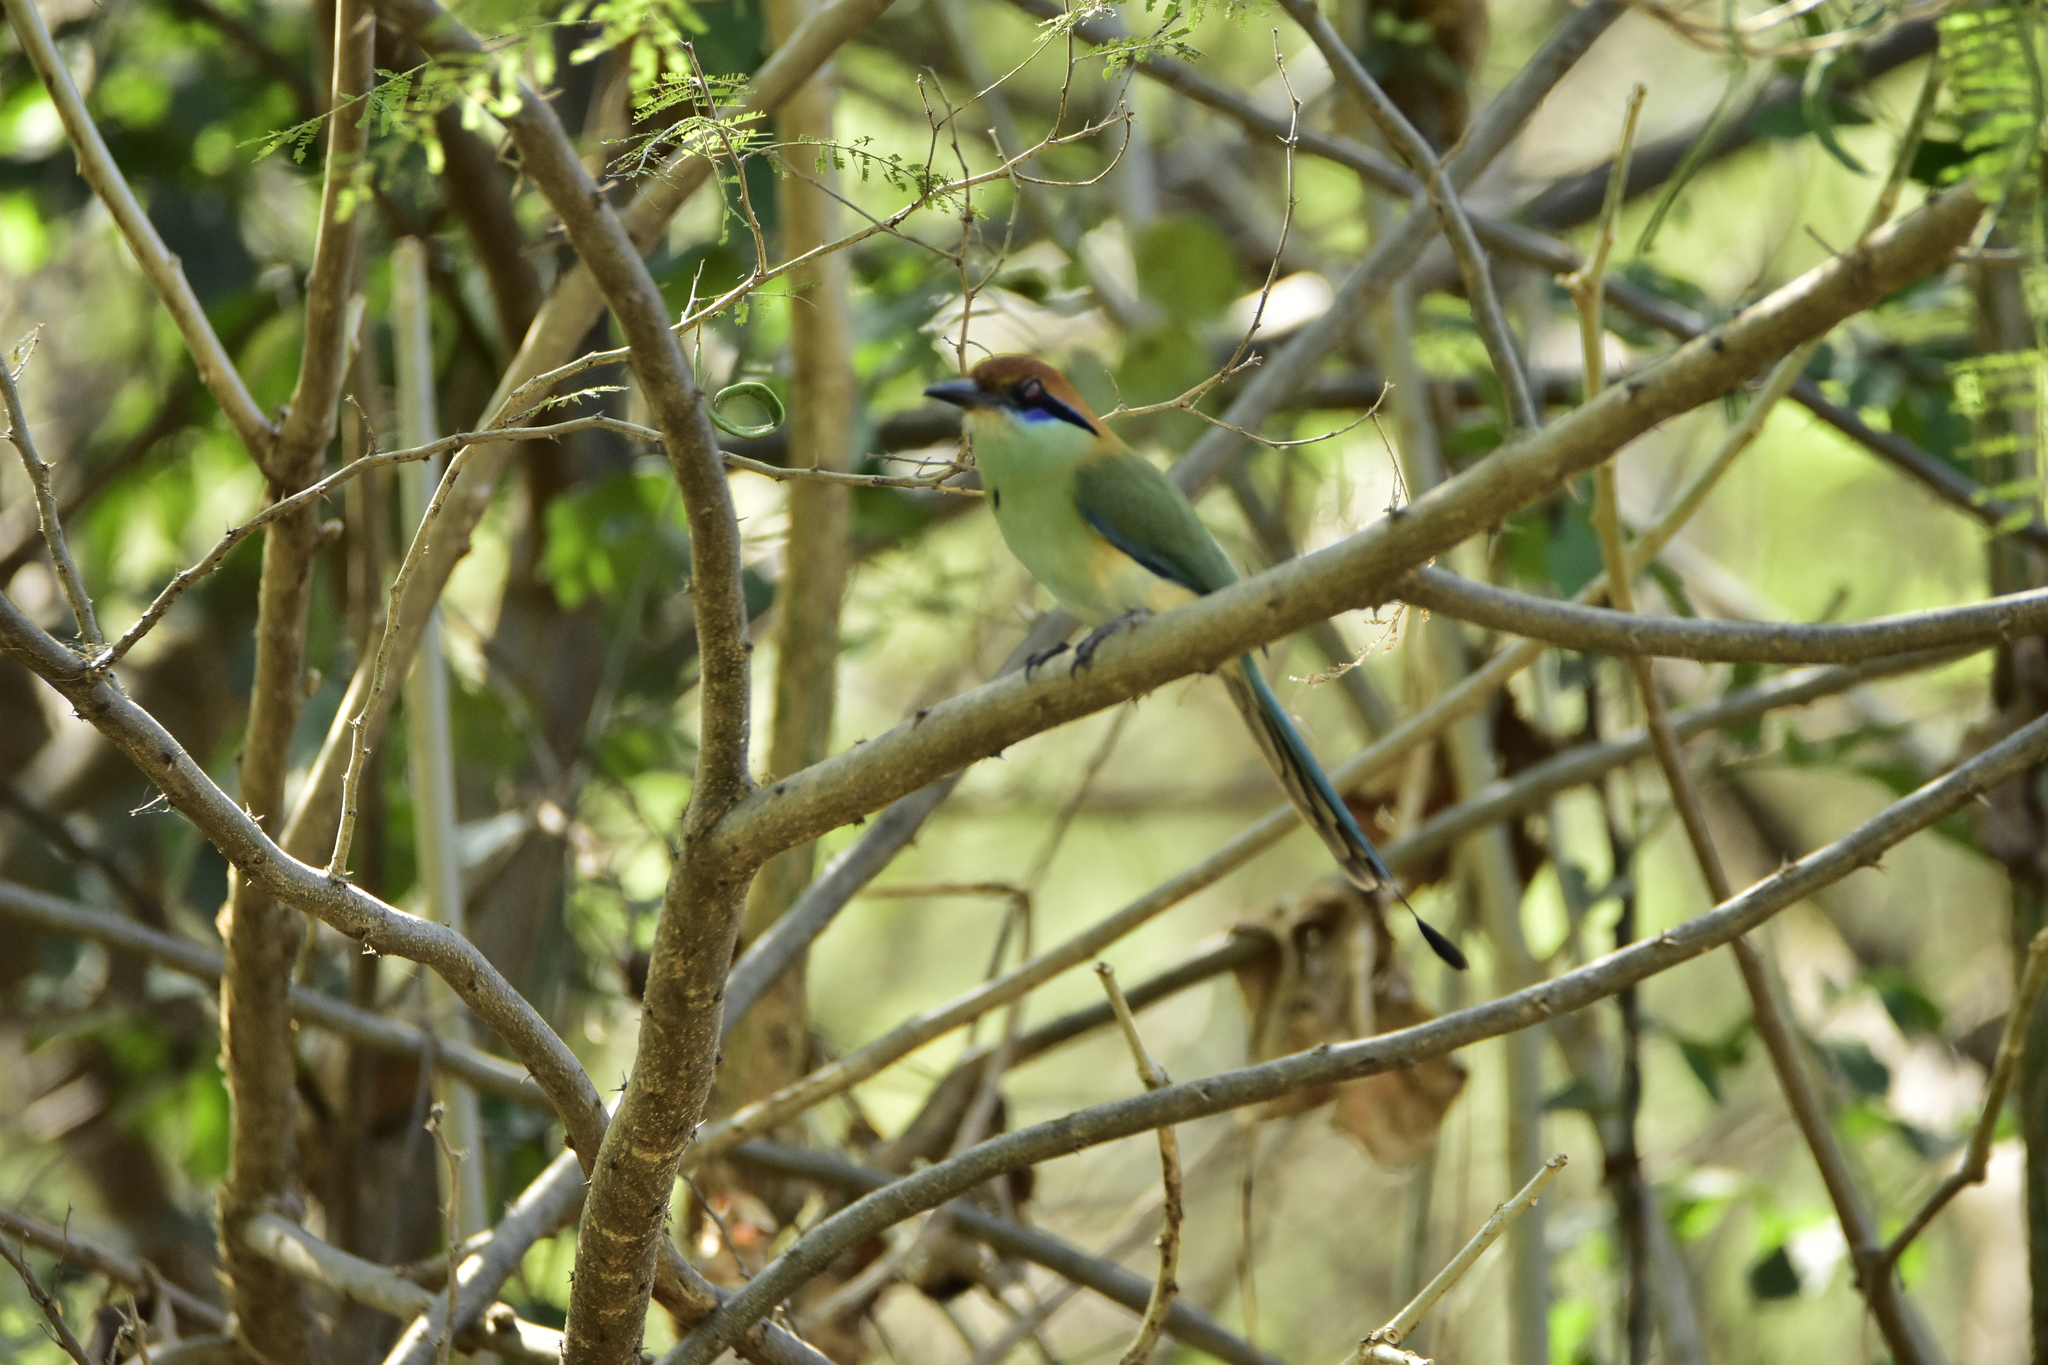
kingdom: Animalia
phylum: Chordata
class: Aves
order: Coraciiformes
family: Momotidae
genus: Momotus
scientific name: Momotus mexicanus
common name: Russet-crowned motmot
